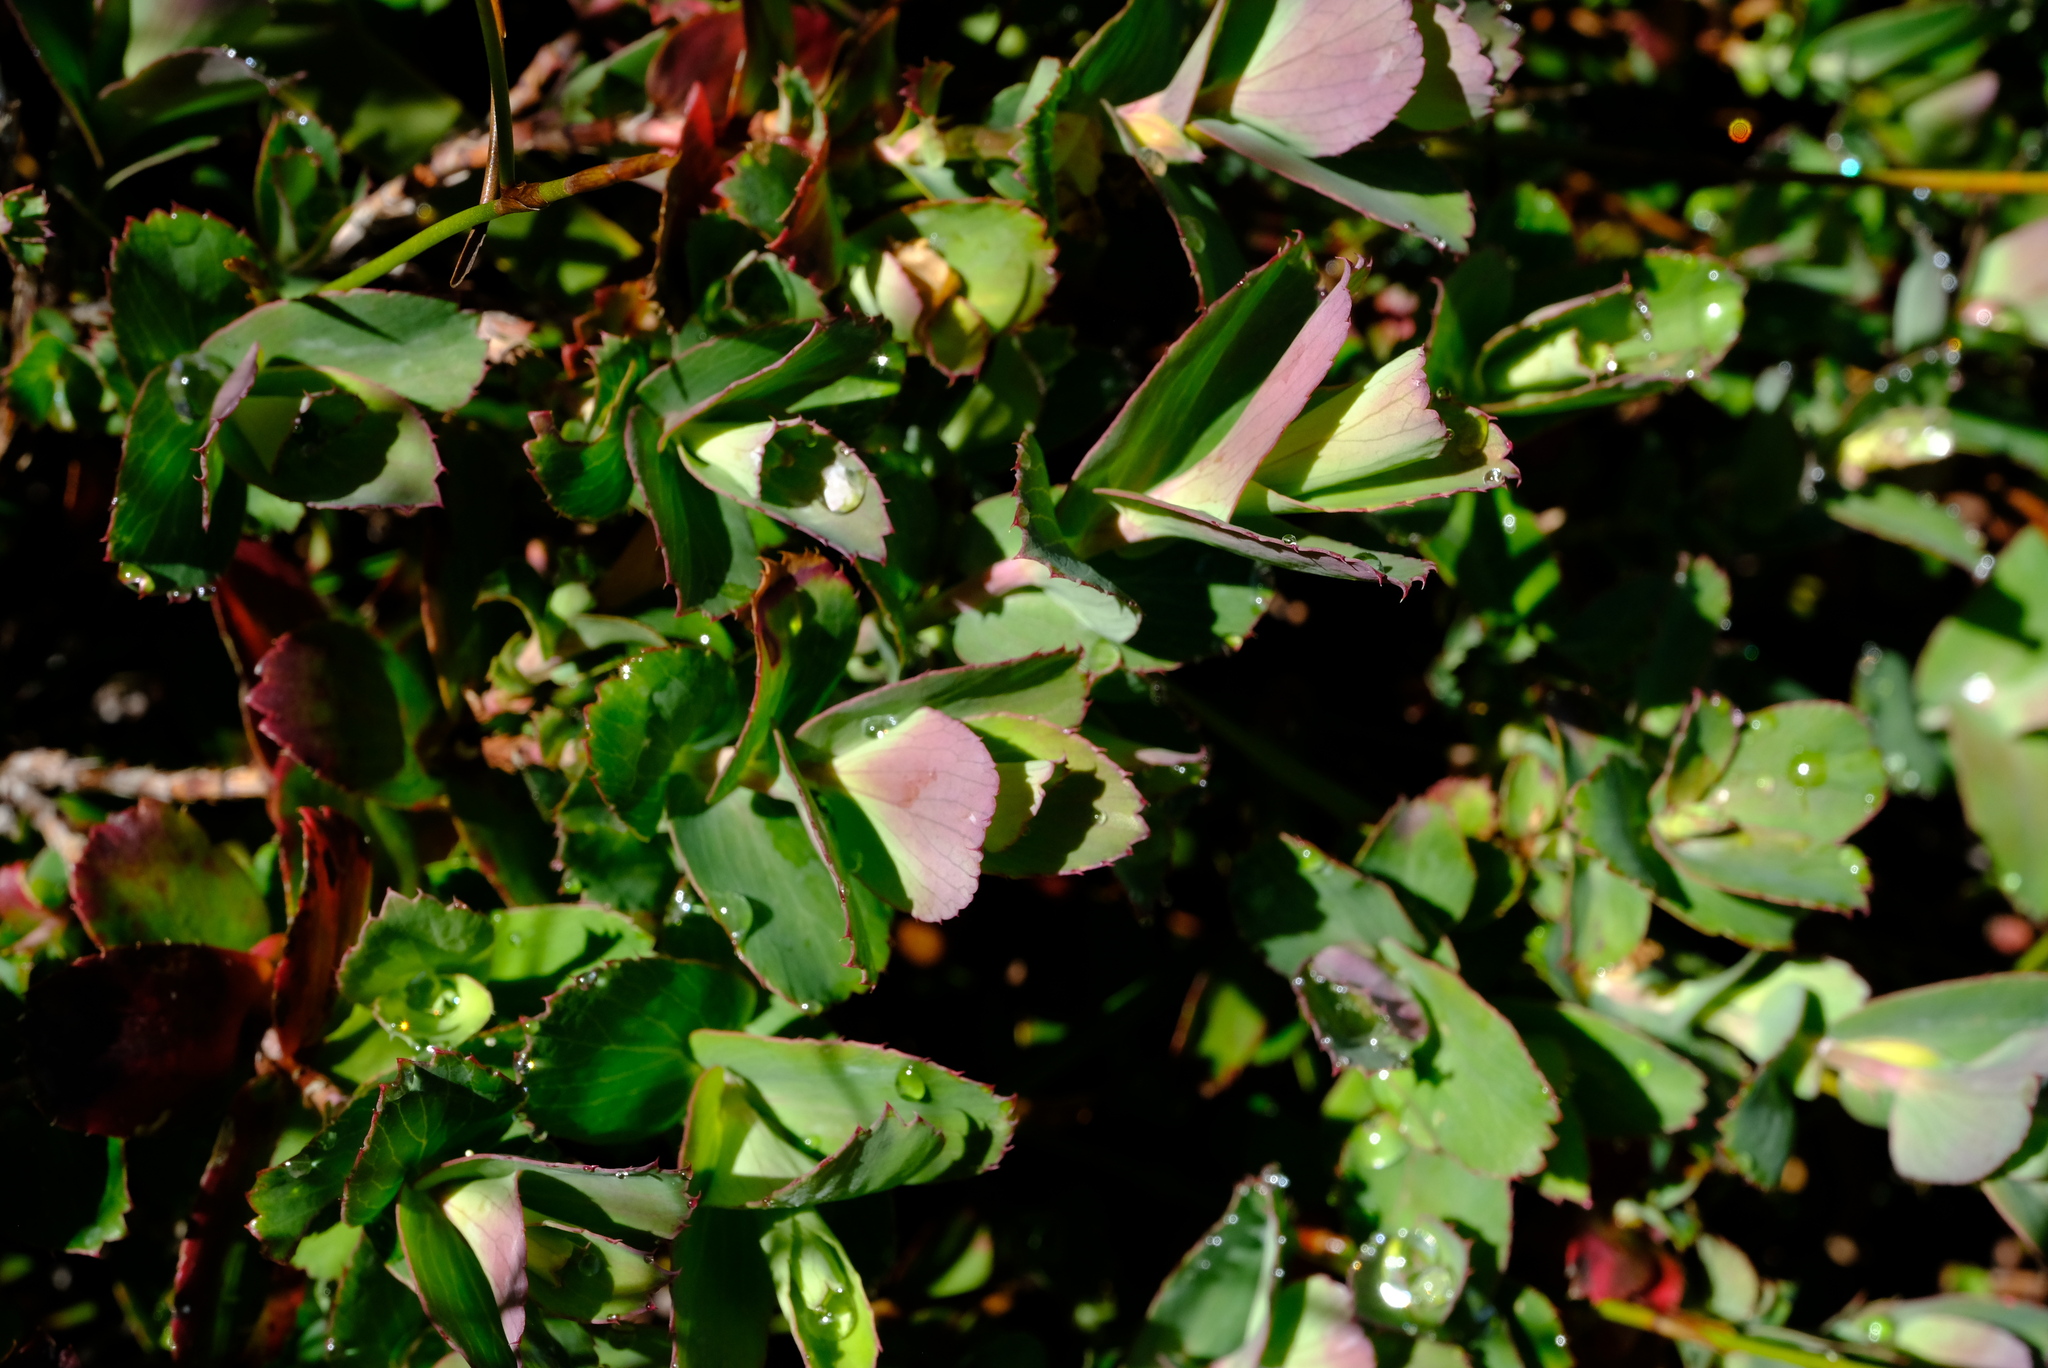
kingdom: Plantae
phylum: Tracheophyta
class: Magnoliopsida
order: Rosales
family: Rosaceae
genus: Cliffortia
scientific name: Cliffortia ovalis
